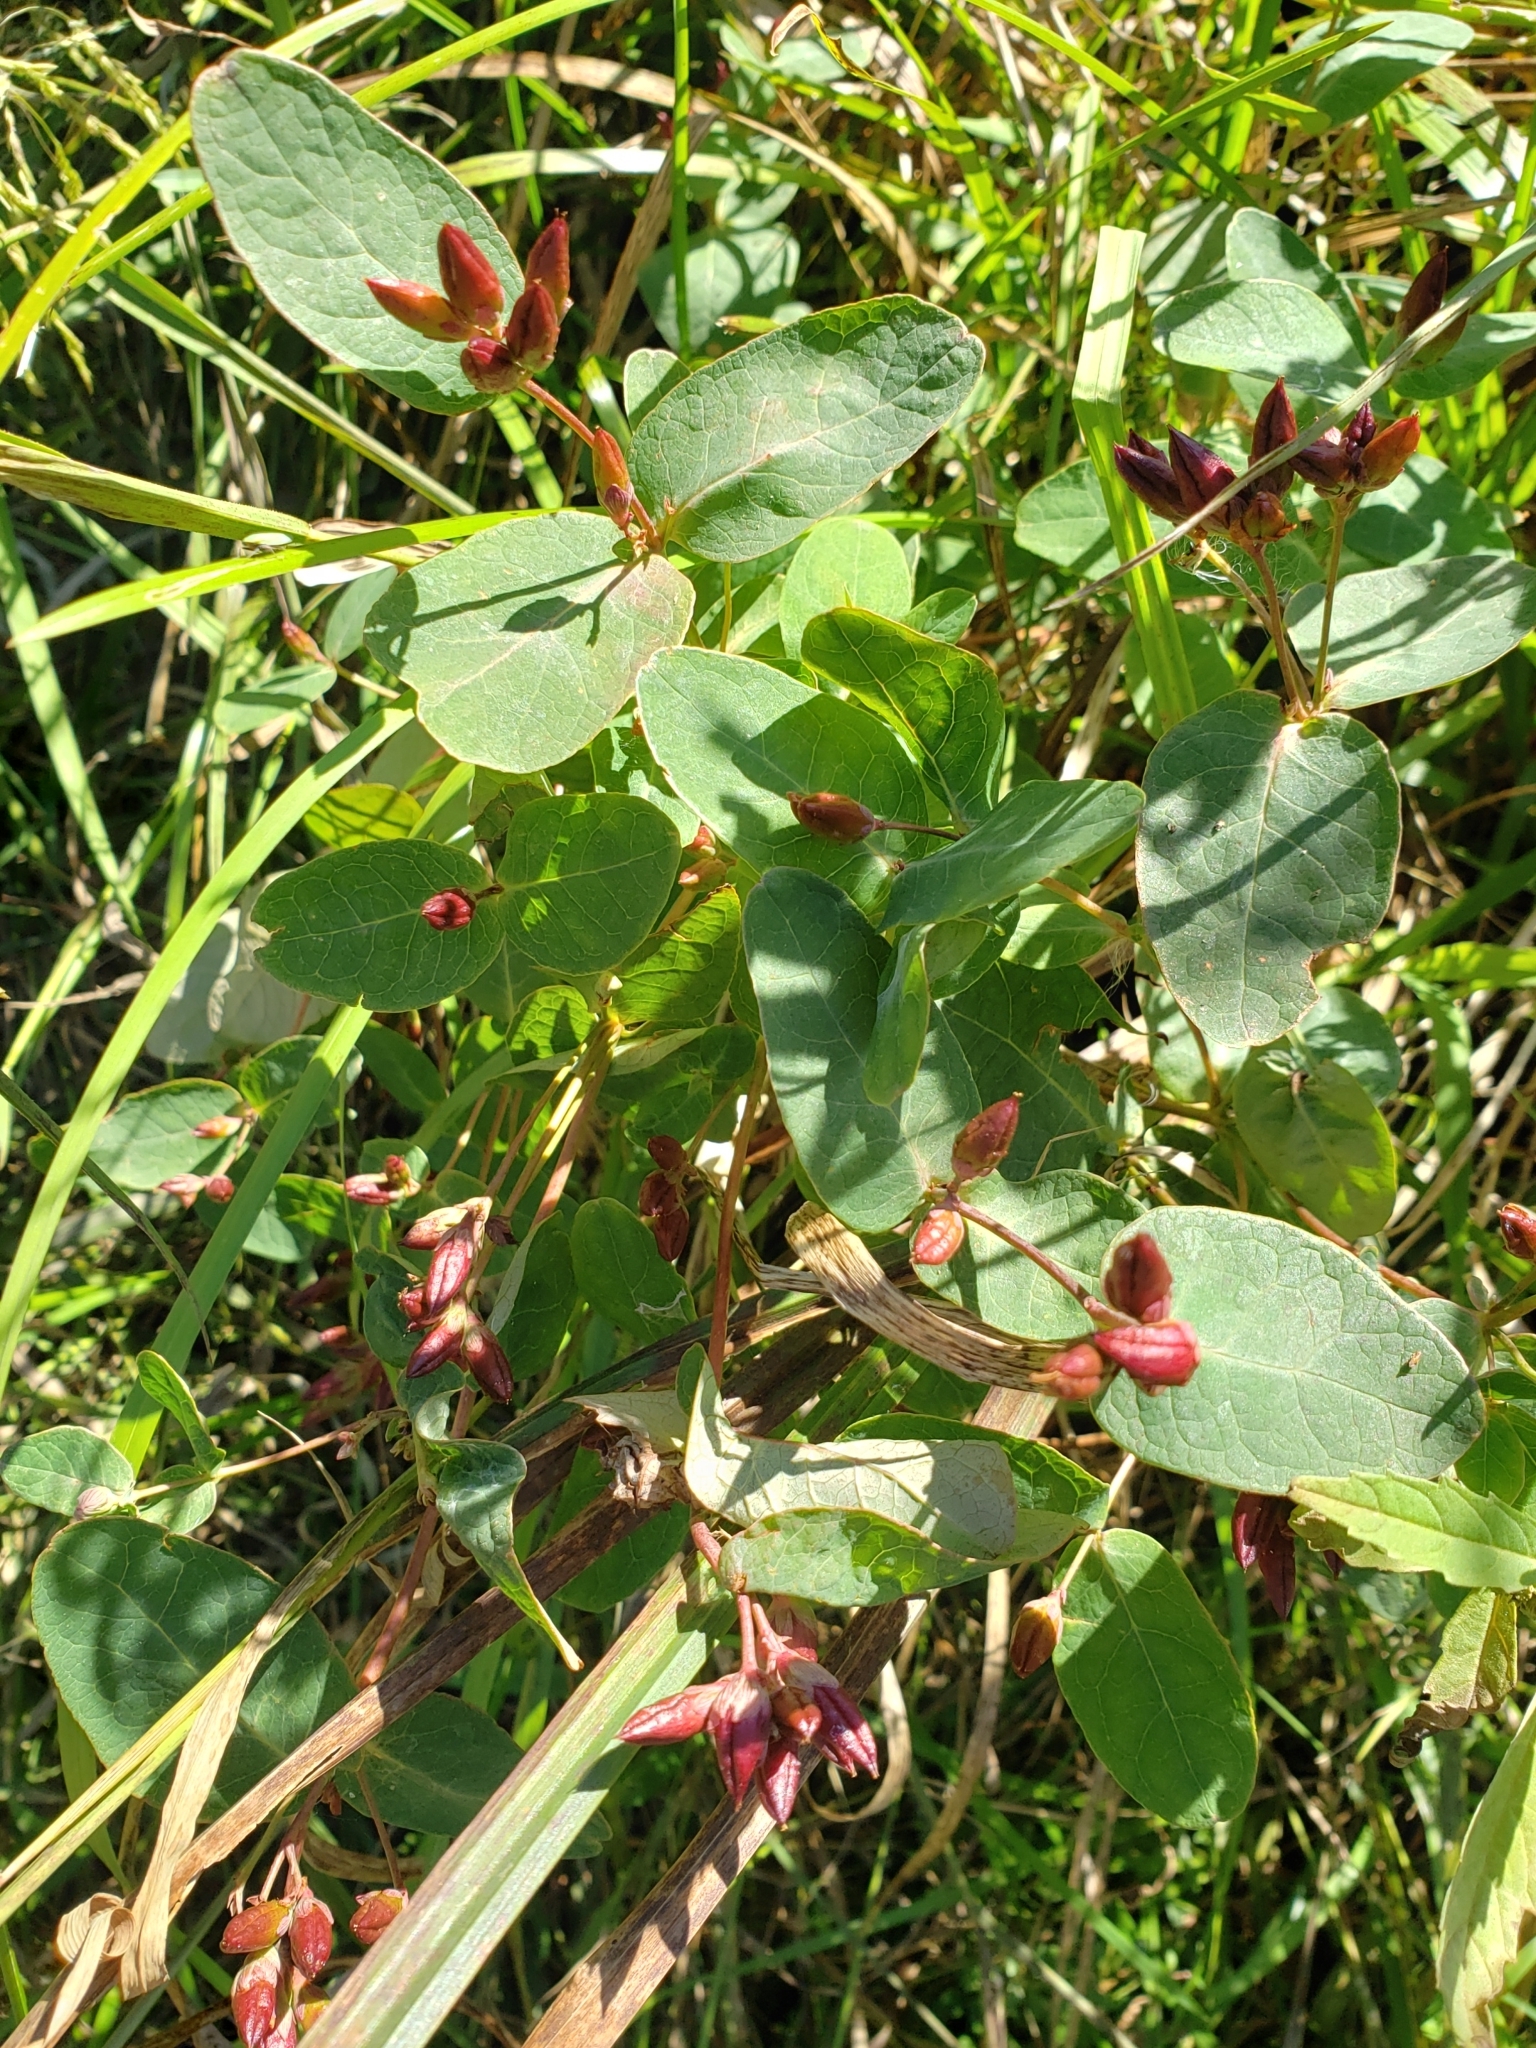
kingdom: Plantae
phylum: Tracheophyta
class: Magnoliopsida
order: Malpighiales
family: Hypericaceae
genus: Triadenum
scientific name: Triadenum fraseri
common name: Fraser's marsh st. johnswort
